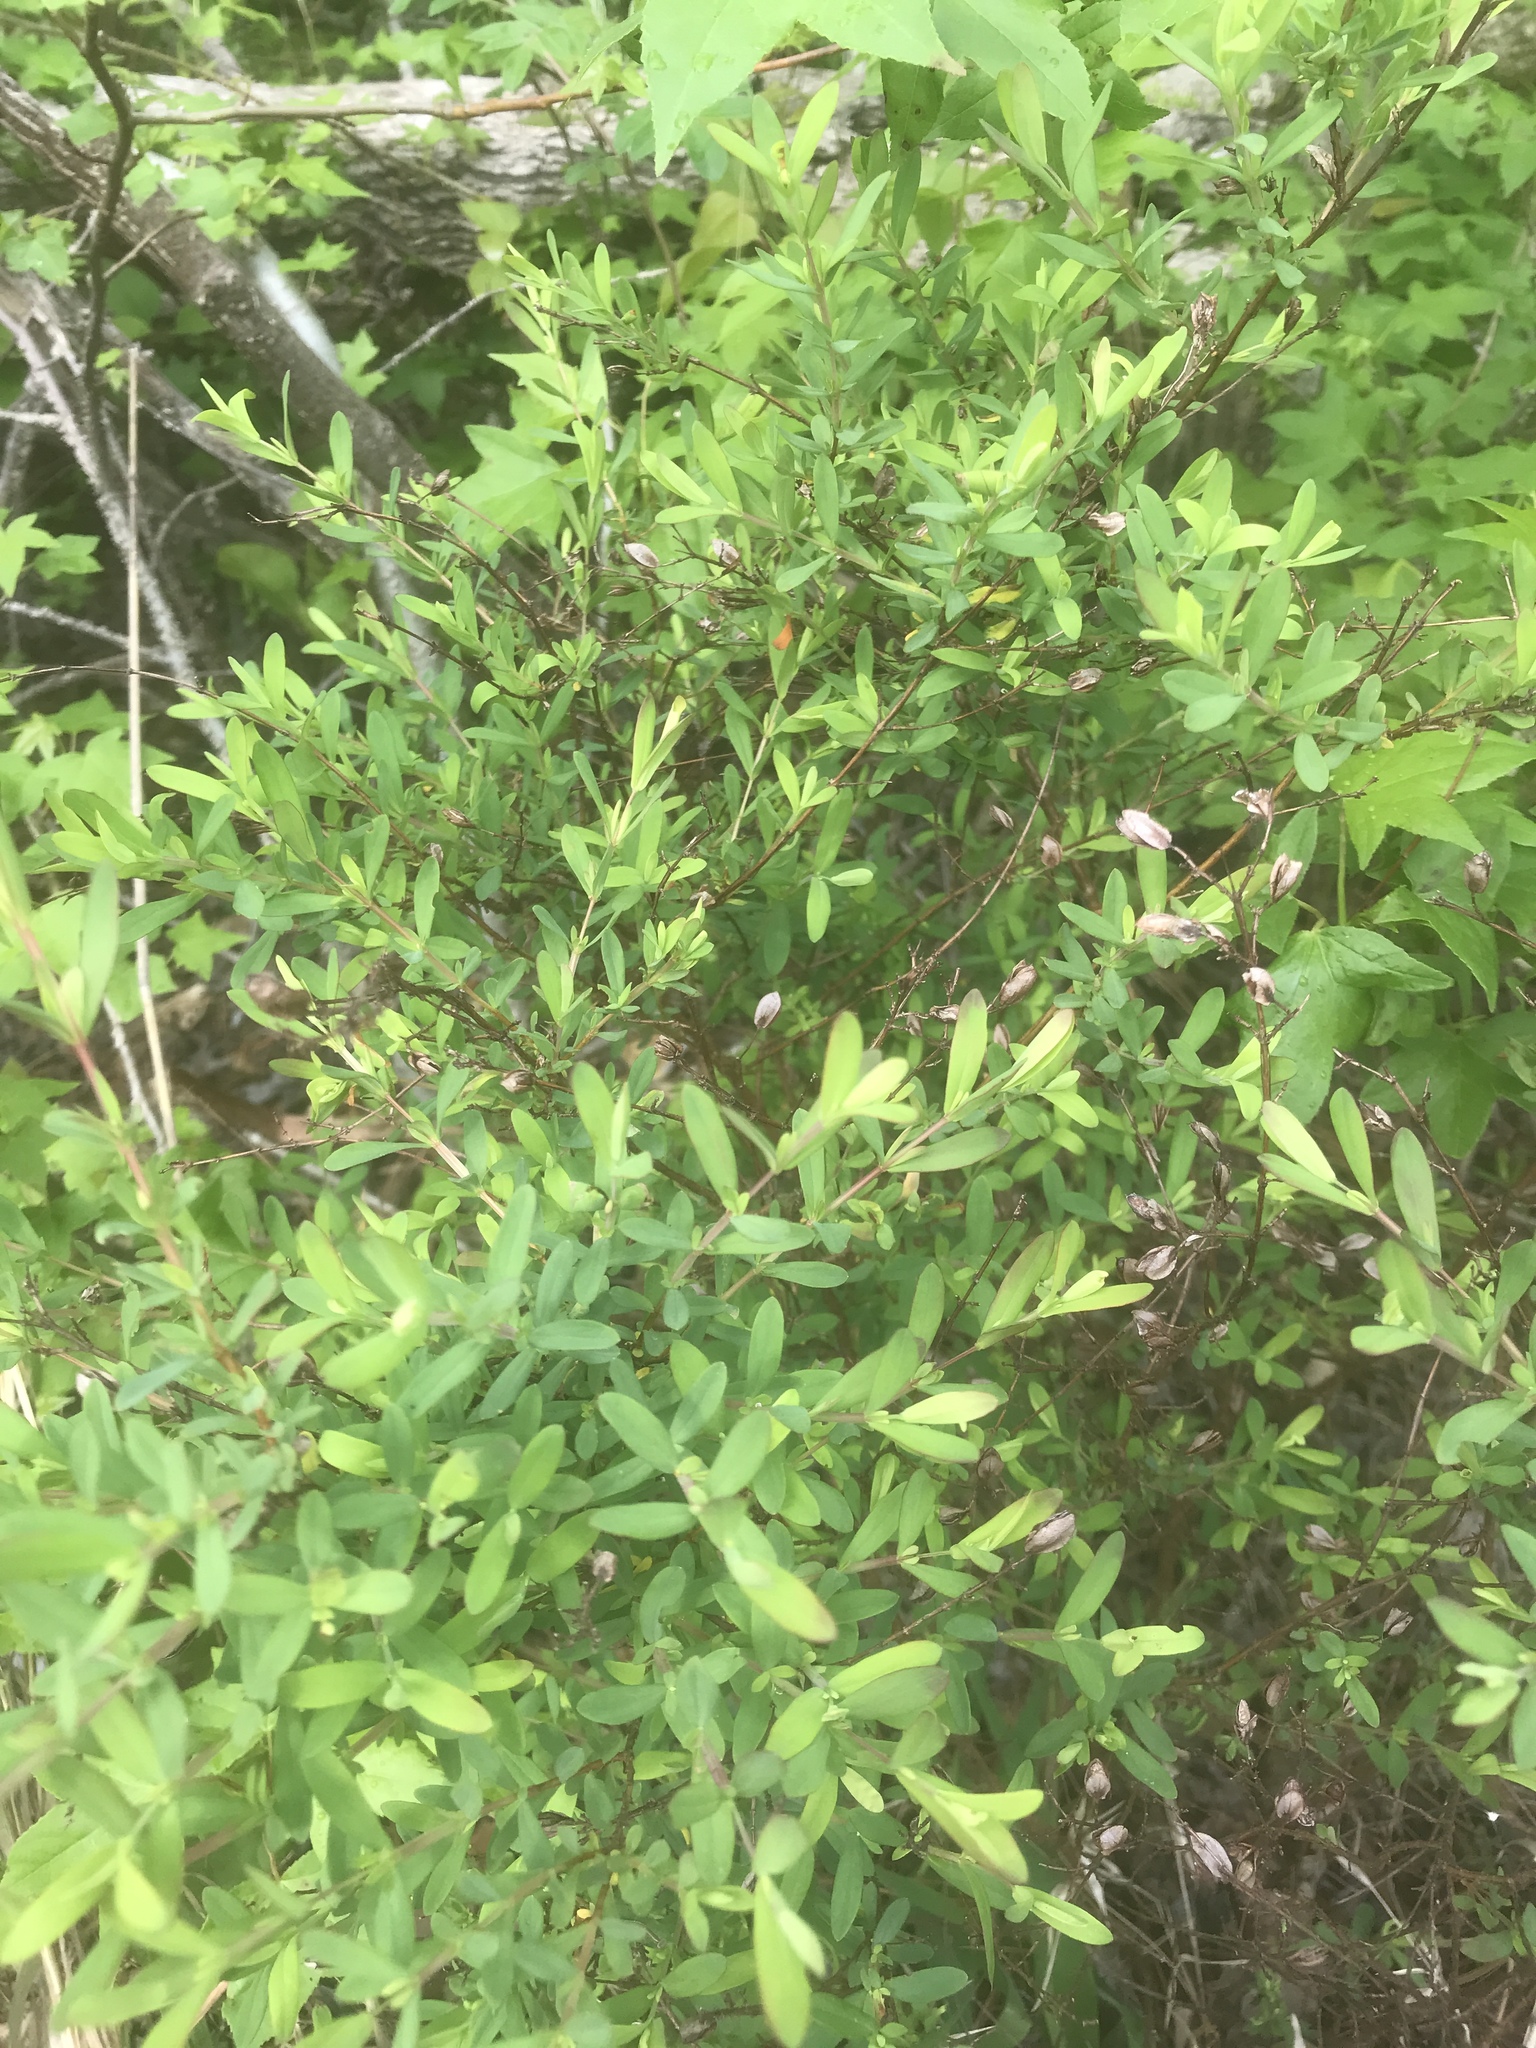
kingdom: Plantae
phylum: Tracheophyta
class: Magnoliopsida
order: Malpighiales
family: Hypericaceae
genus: Hypericum
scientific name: Hypericum hypericoides
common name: St. andrew's cross
